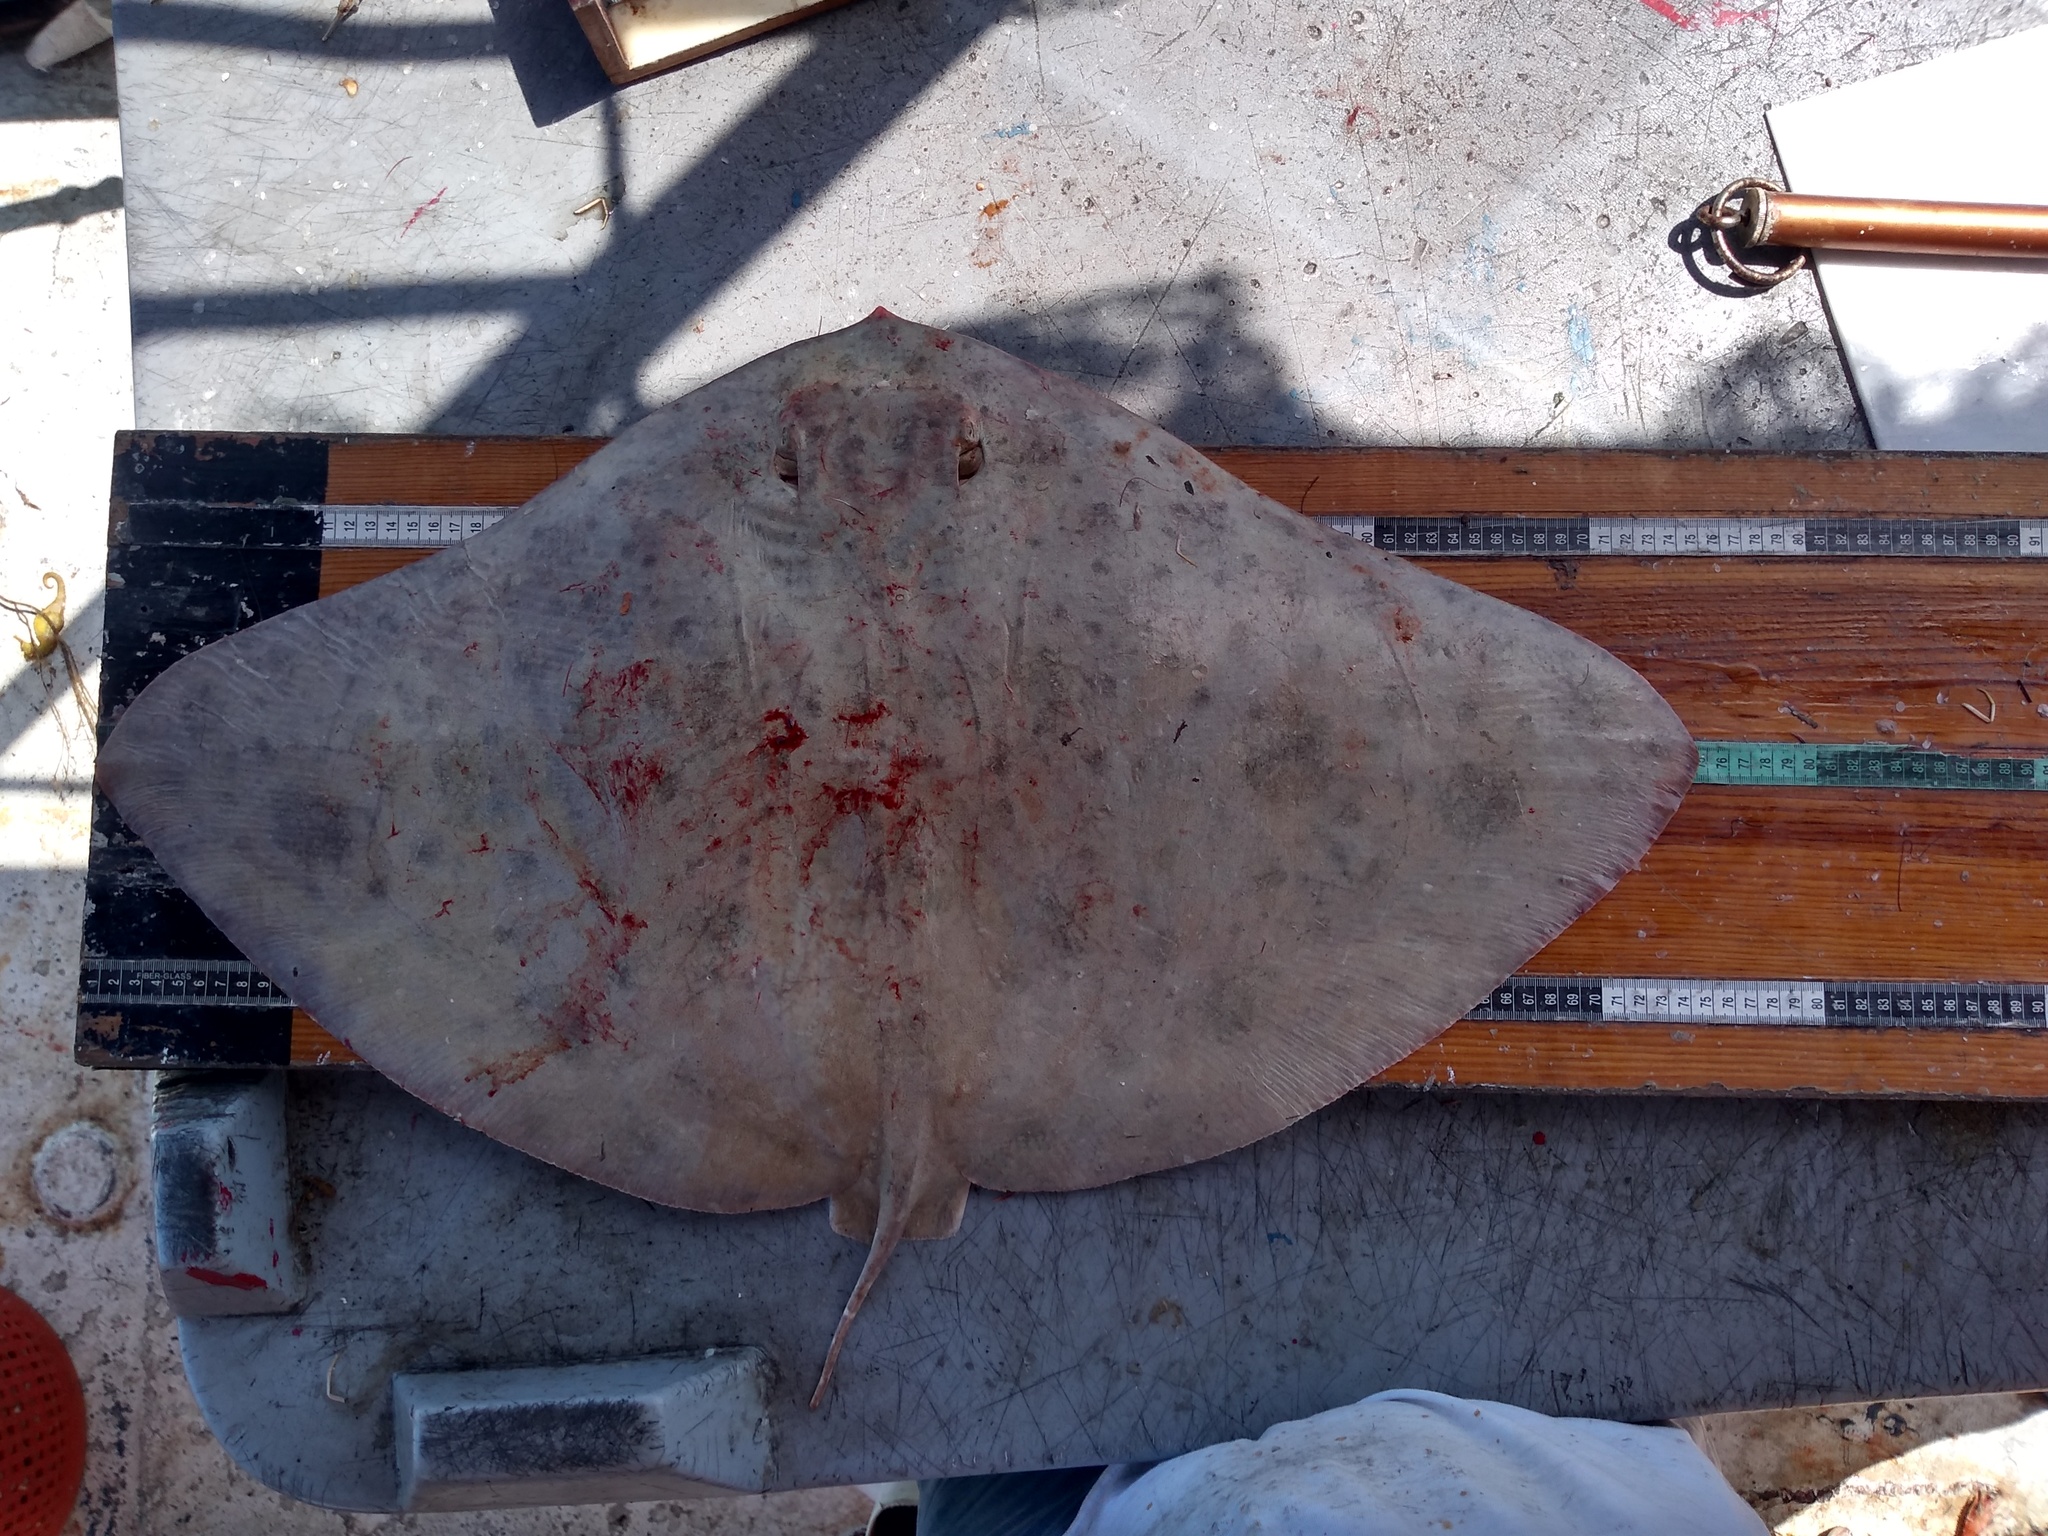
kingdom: Animalia
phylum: Chordata
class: Elasmobranchii
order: Myliobatiformes
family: Gymnuridae
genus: Gymnura
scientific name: Gymnura lessae
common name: Lessa's butterfly ray
